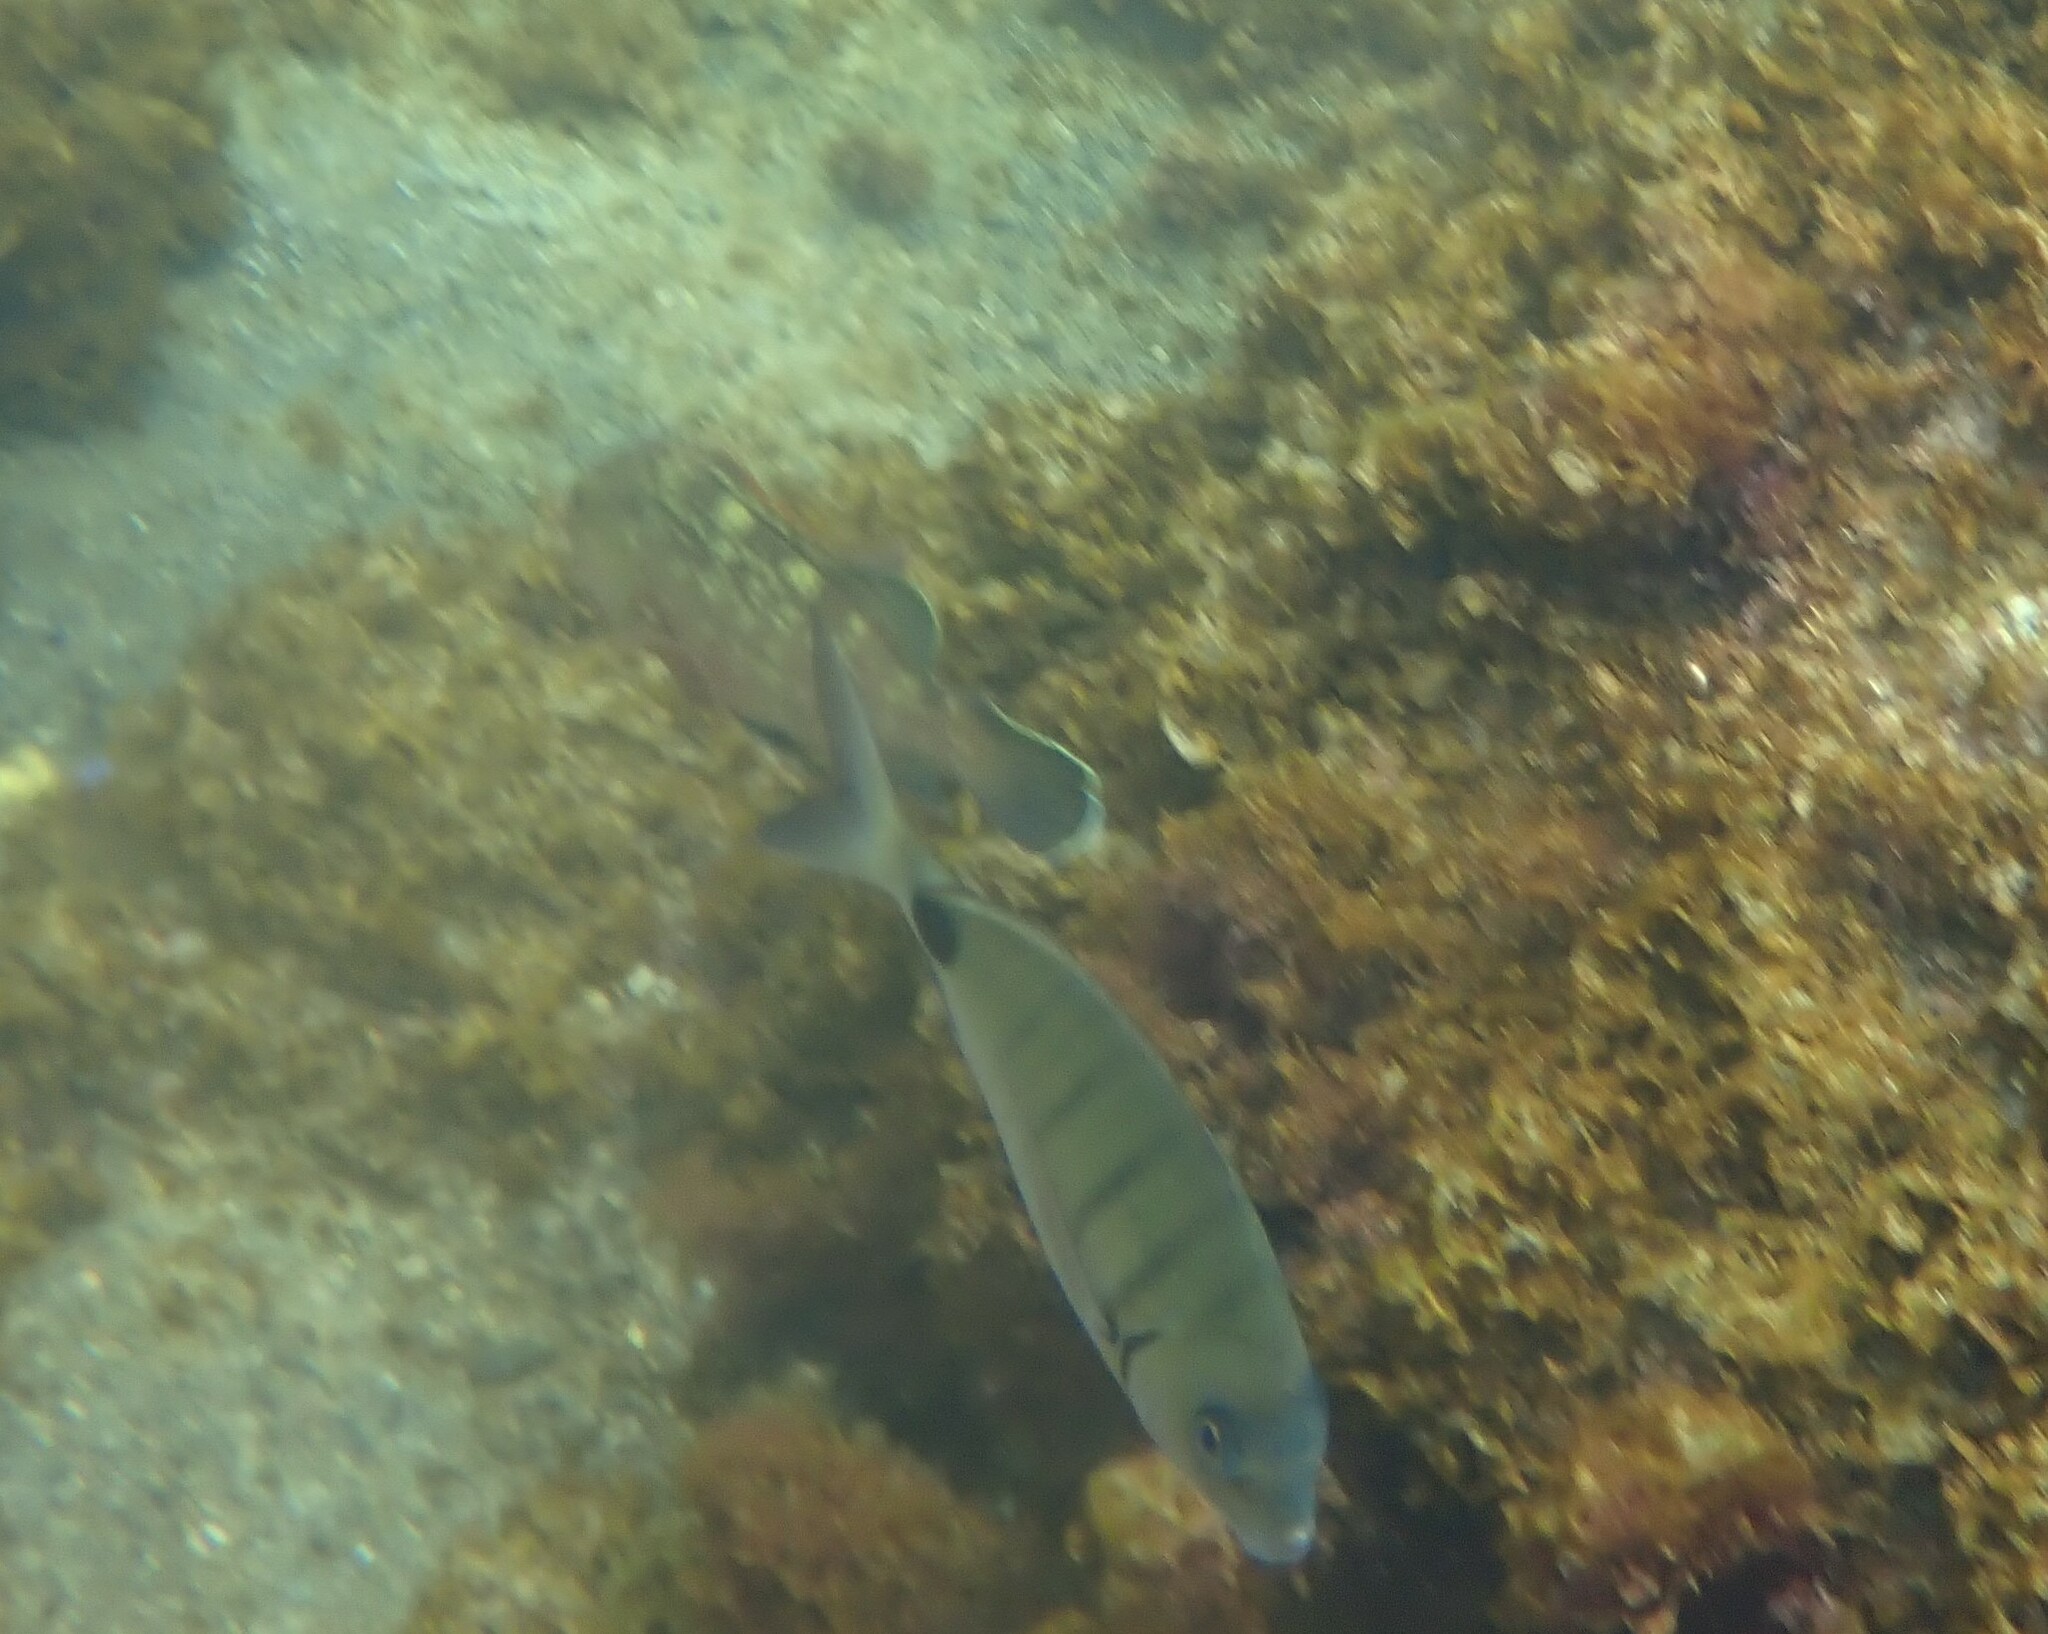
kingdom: Animalia
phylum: Chordata
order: Perciformes
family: Sparidae
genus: Diplodus
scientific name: Diplodus cadenati
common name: Moroccan white seabream
